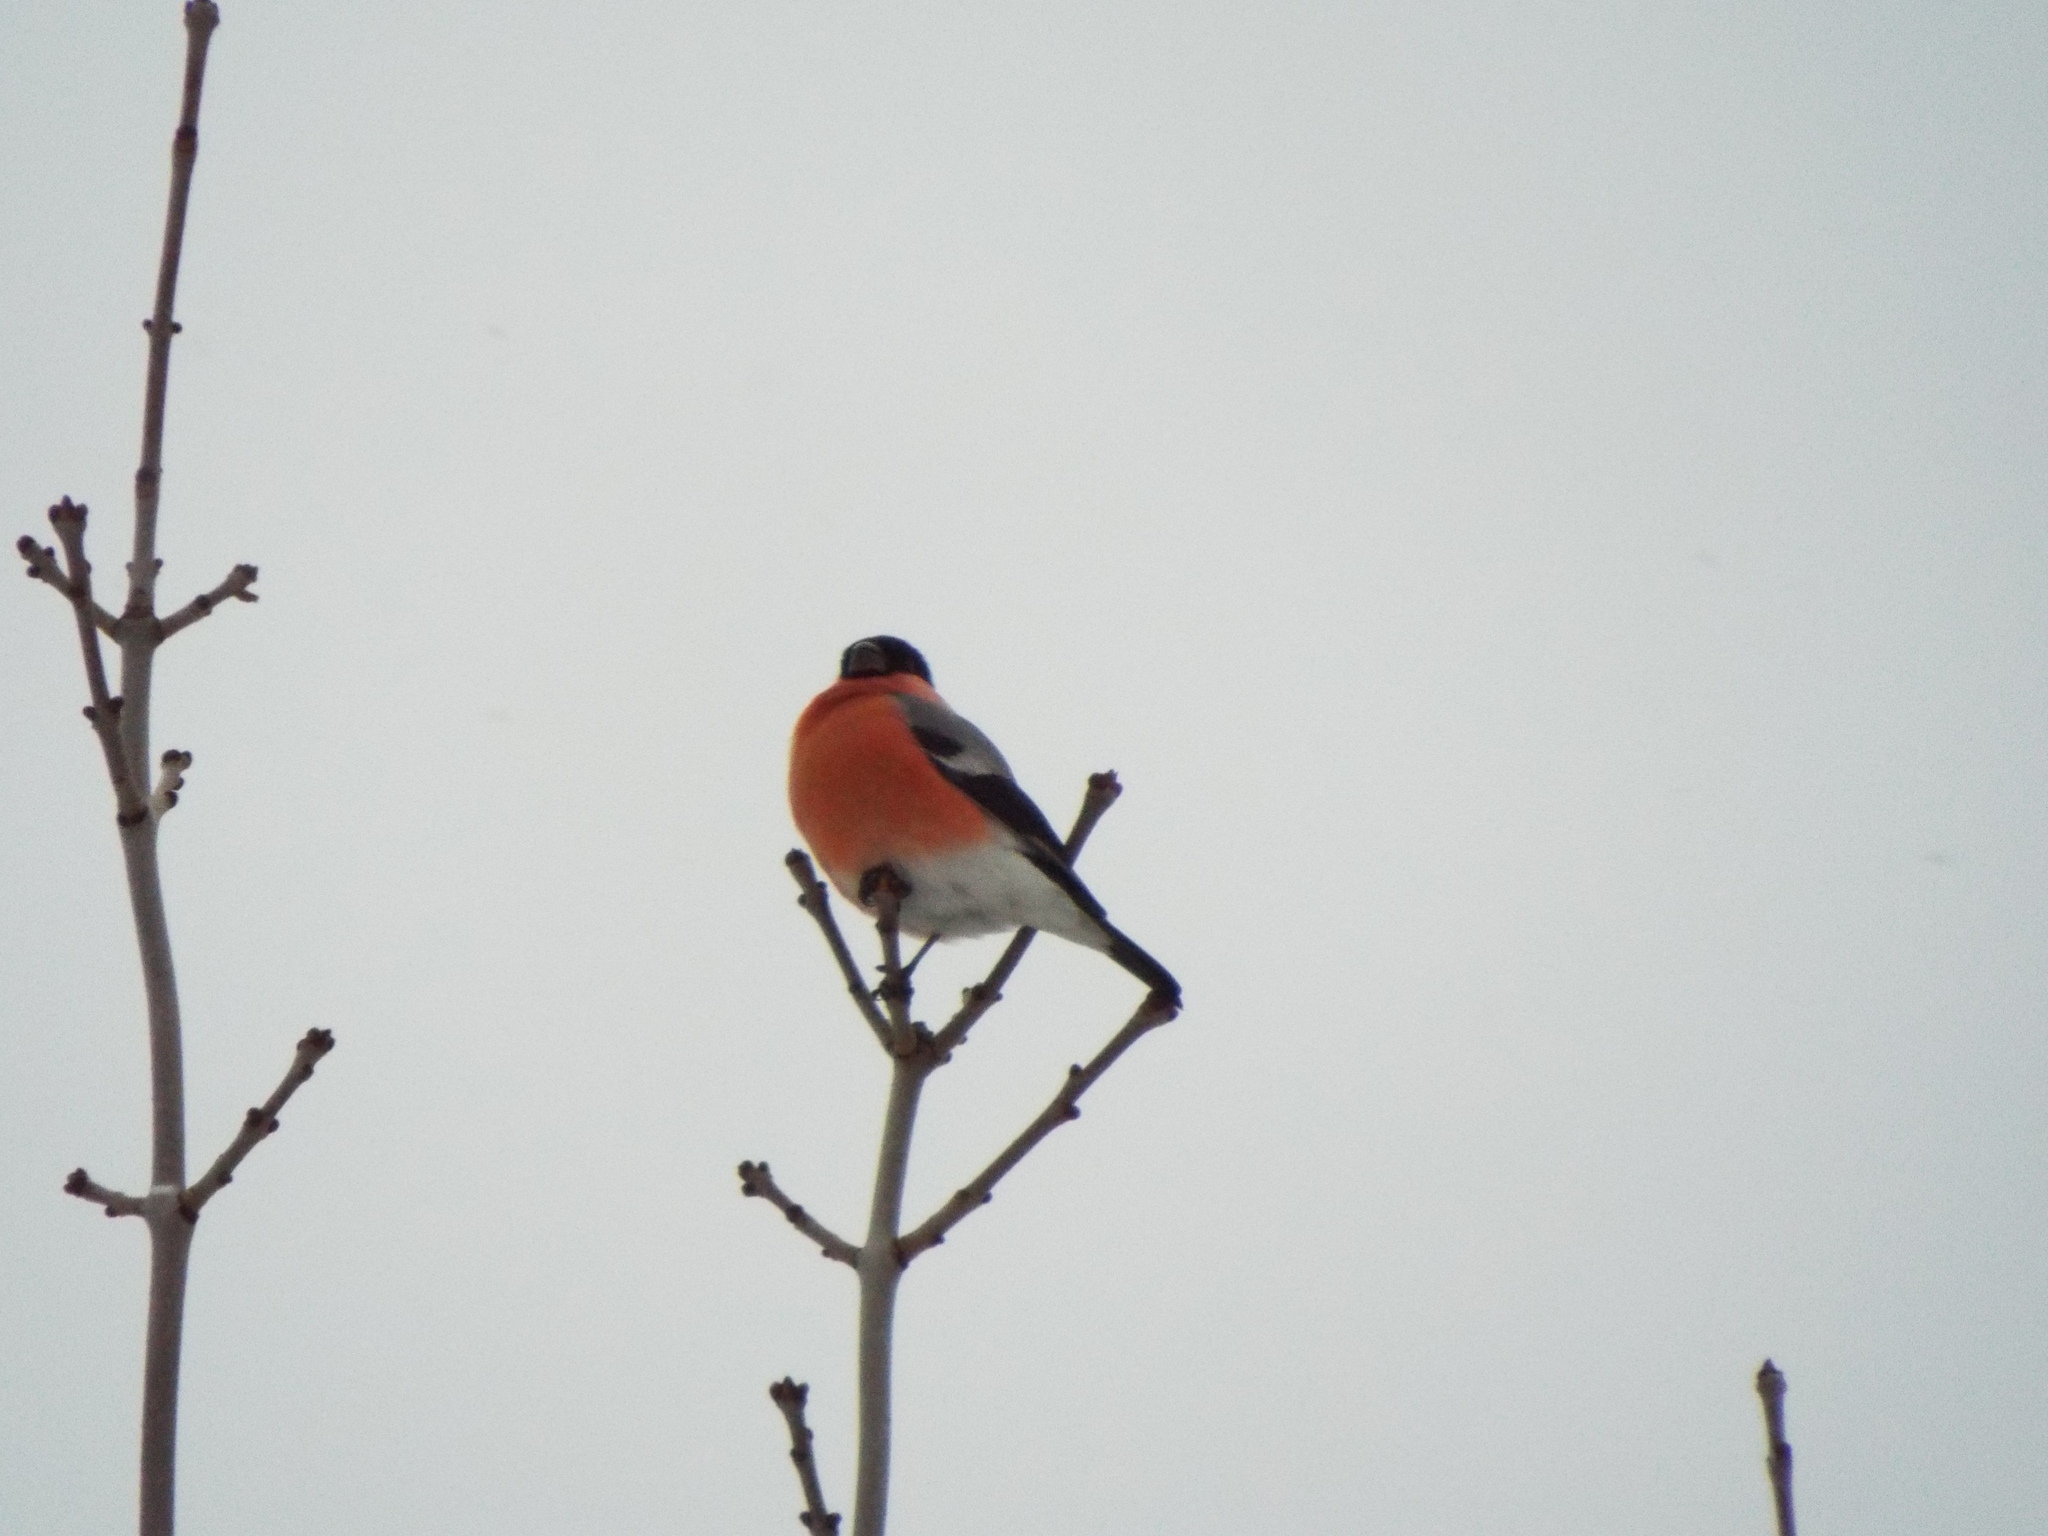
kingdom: Animalia
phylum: Chordata
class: Aves
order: Passeriformes
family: Fringillidae
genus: Pyrrhula
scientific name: Pyrrhula pyrrhula
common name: Eurasian bullfinch
